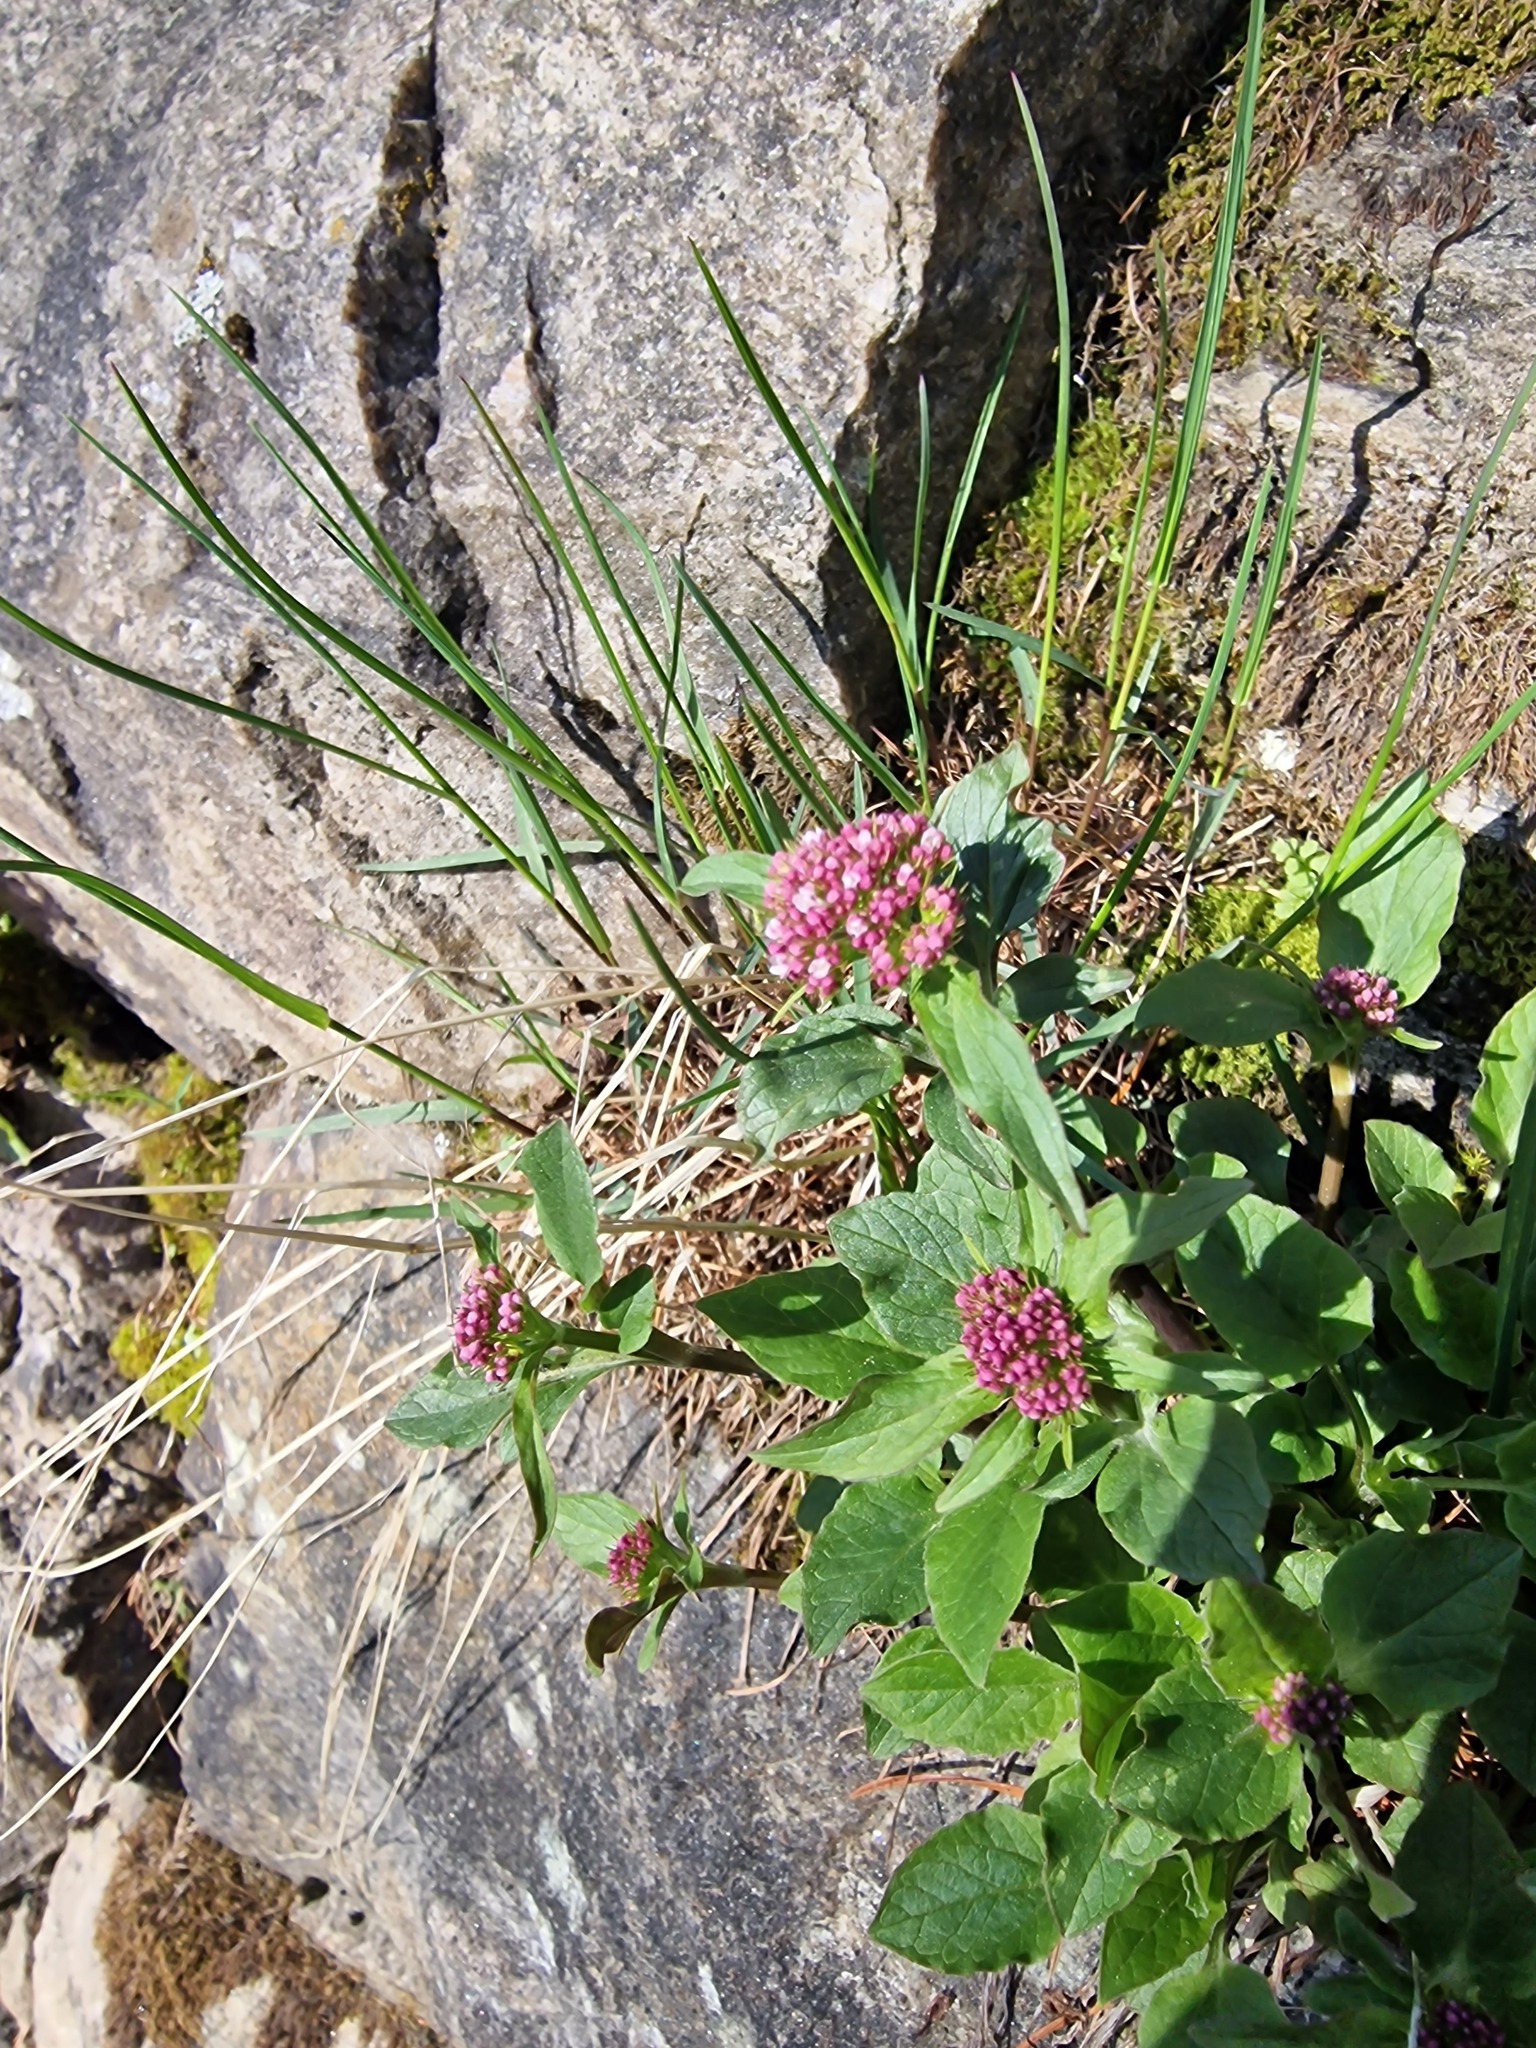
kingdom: Plantae
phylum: Tracheophyta
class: Magnoliopsida
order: Dipsacales
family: Caprifoliaceae
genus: Valeriana
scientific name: Valeriana tripteris
